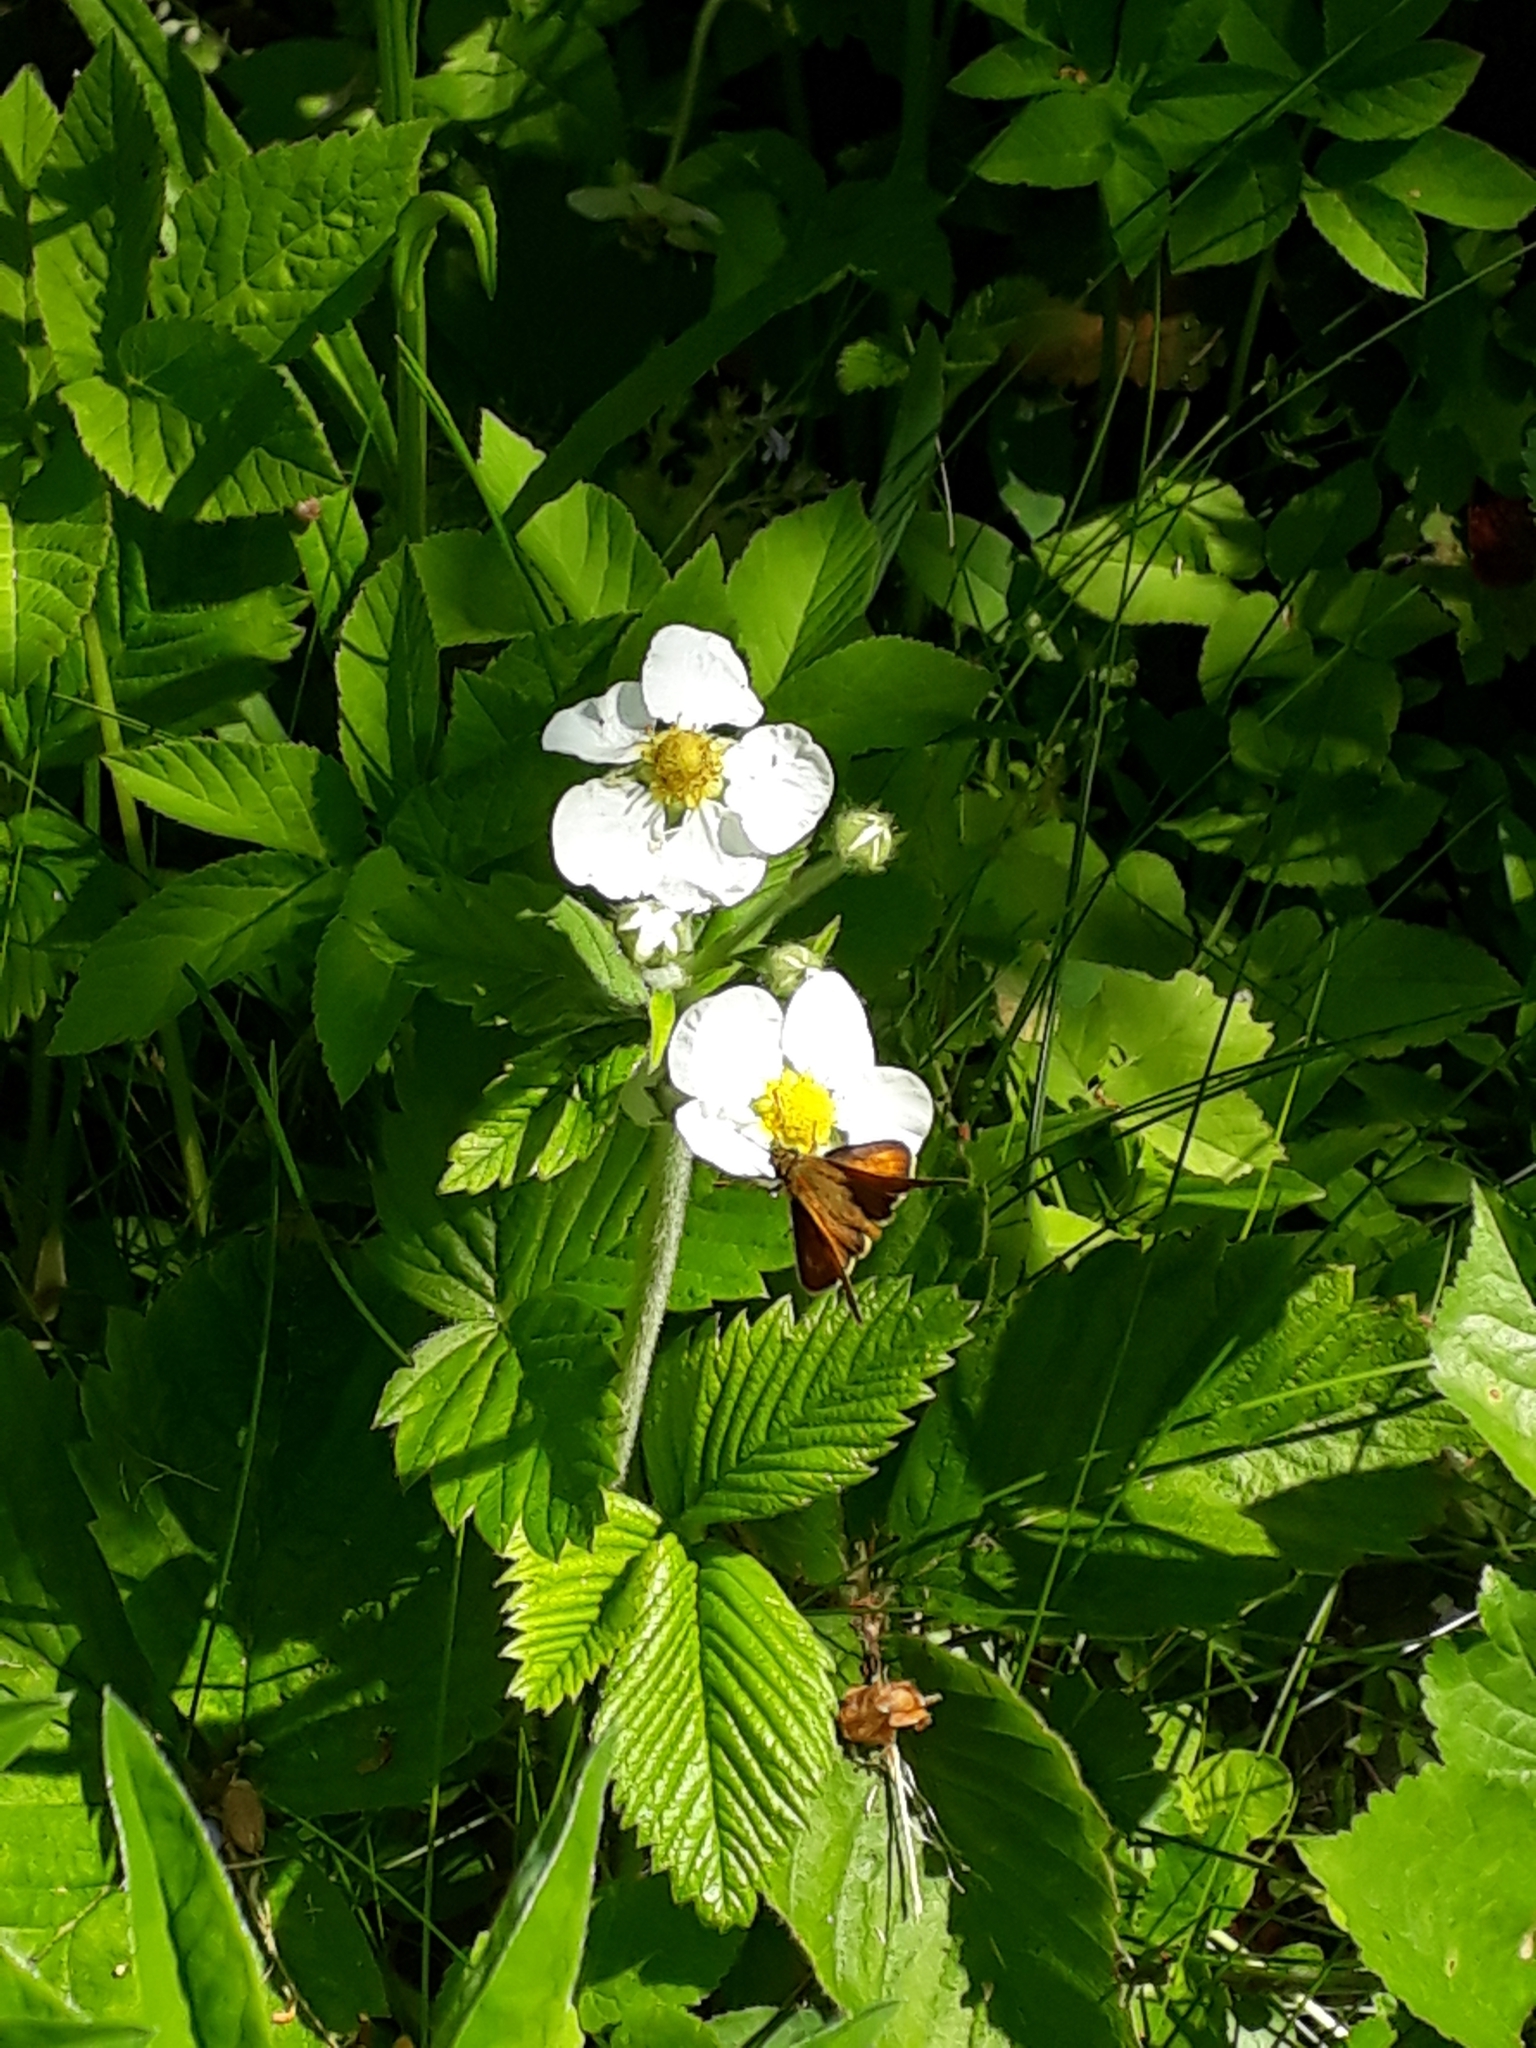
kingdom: Animalia
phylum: Arthropoda
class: Insecta
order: Lepidoptera
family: Hesperiidae
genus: Ochlodes
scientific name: Ochlodes venata
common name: Large skipper
